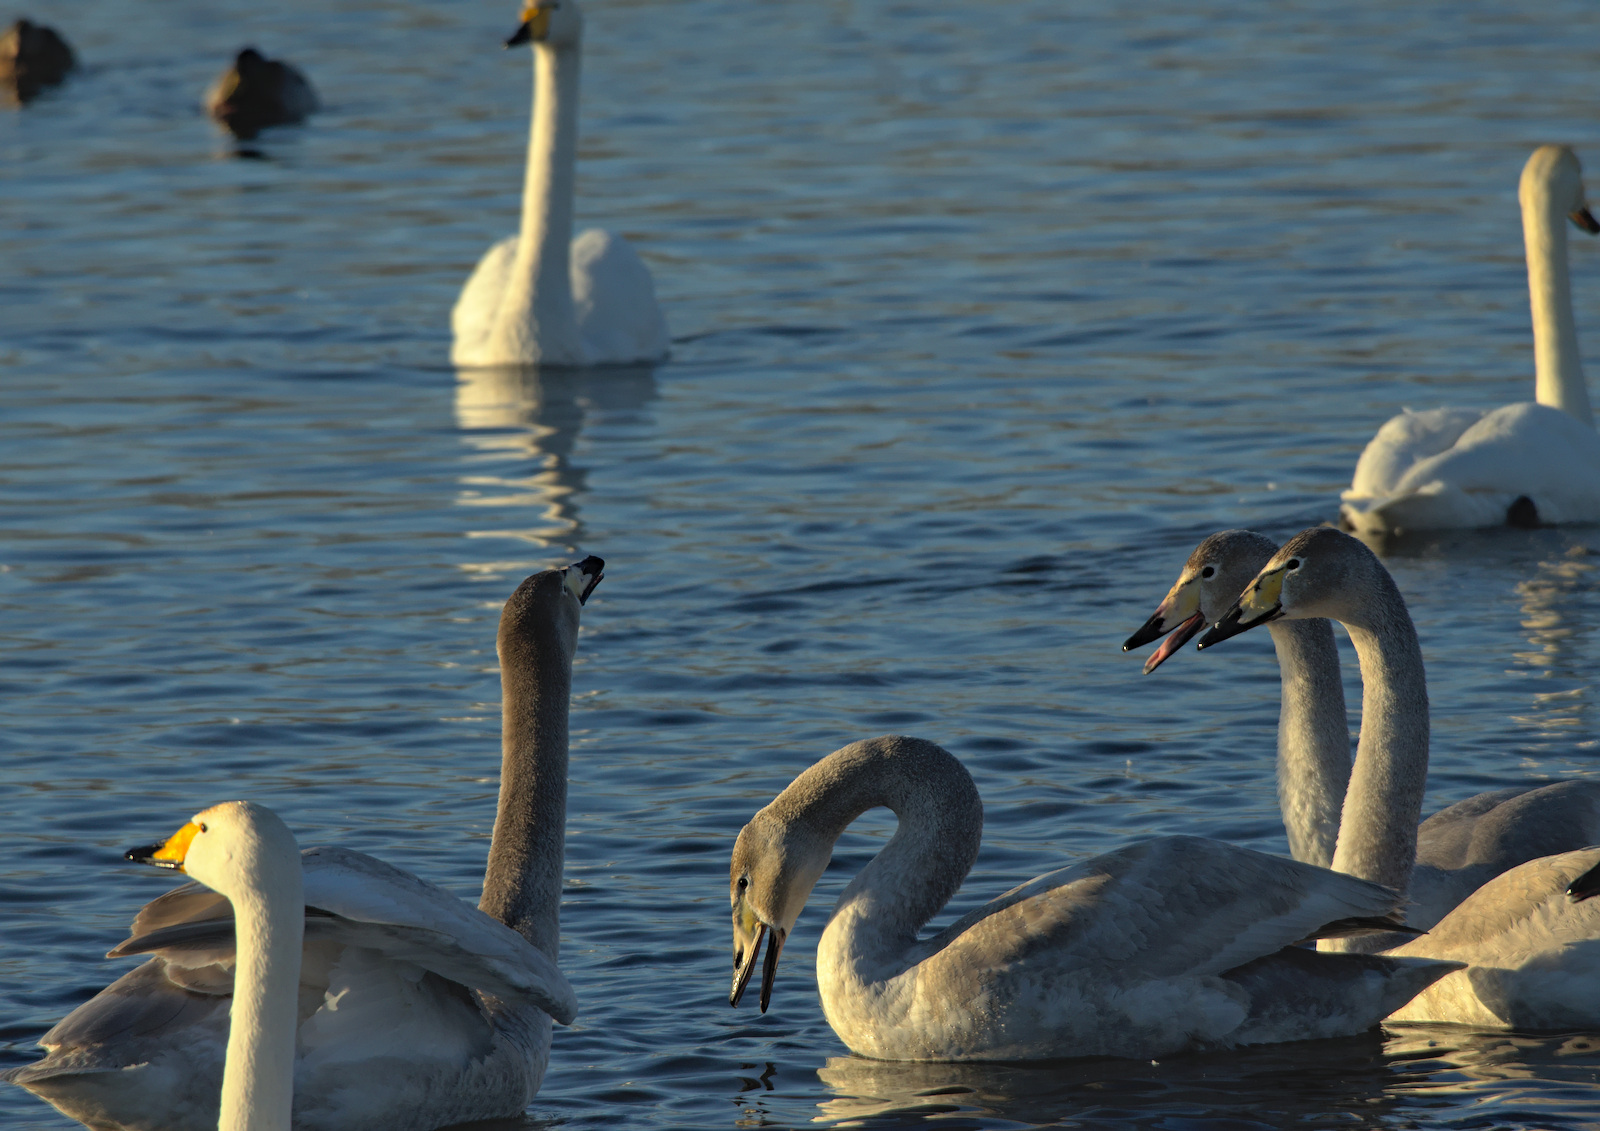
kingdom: Animalia
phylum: Chordata
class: Aves
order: Anseriformes
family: Anatidae
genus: Cygnus
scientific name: Cygnus cygnus
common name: Whooper swan
